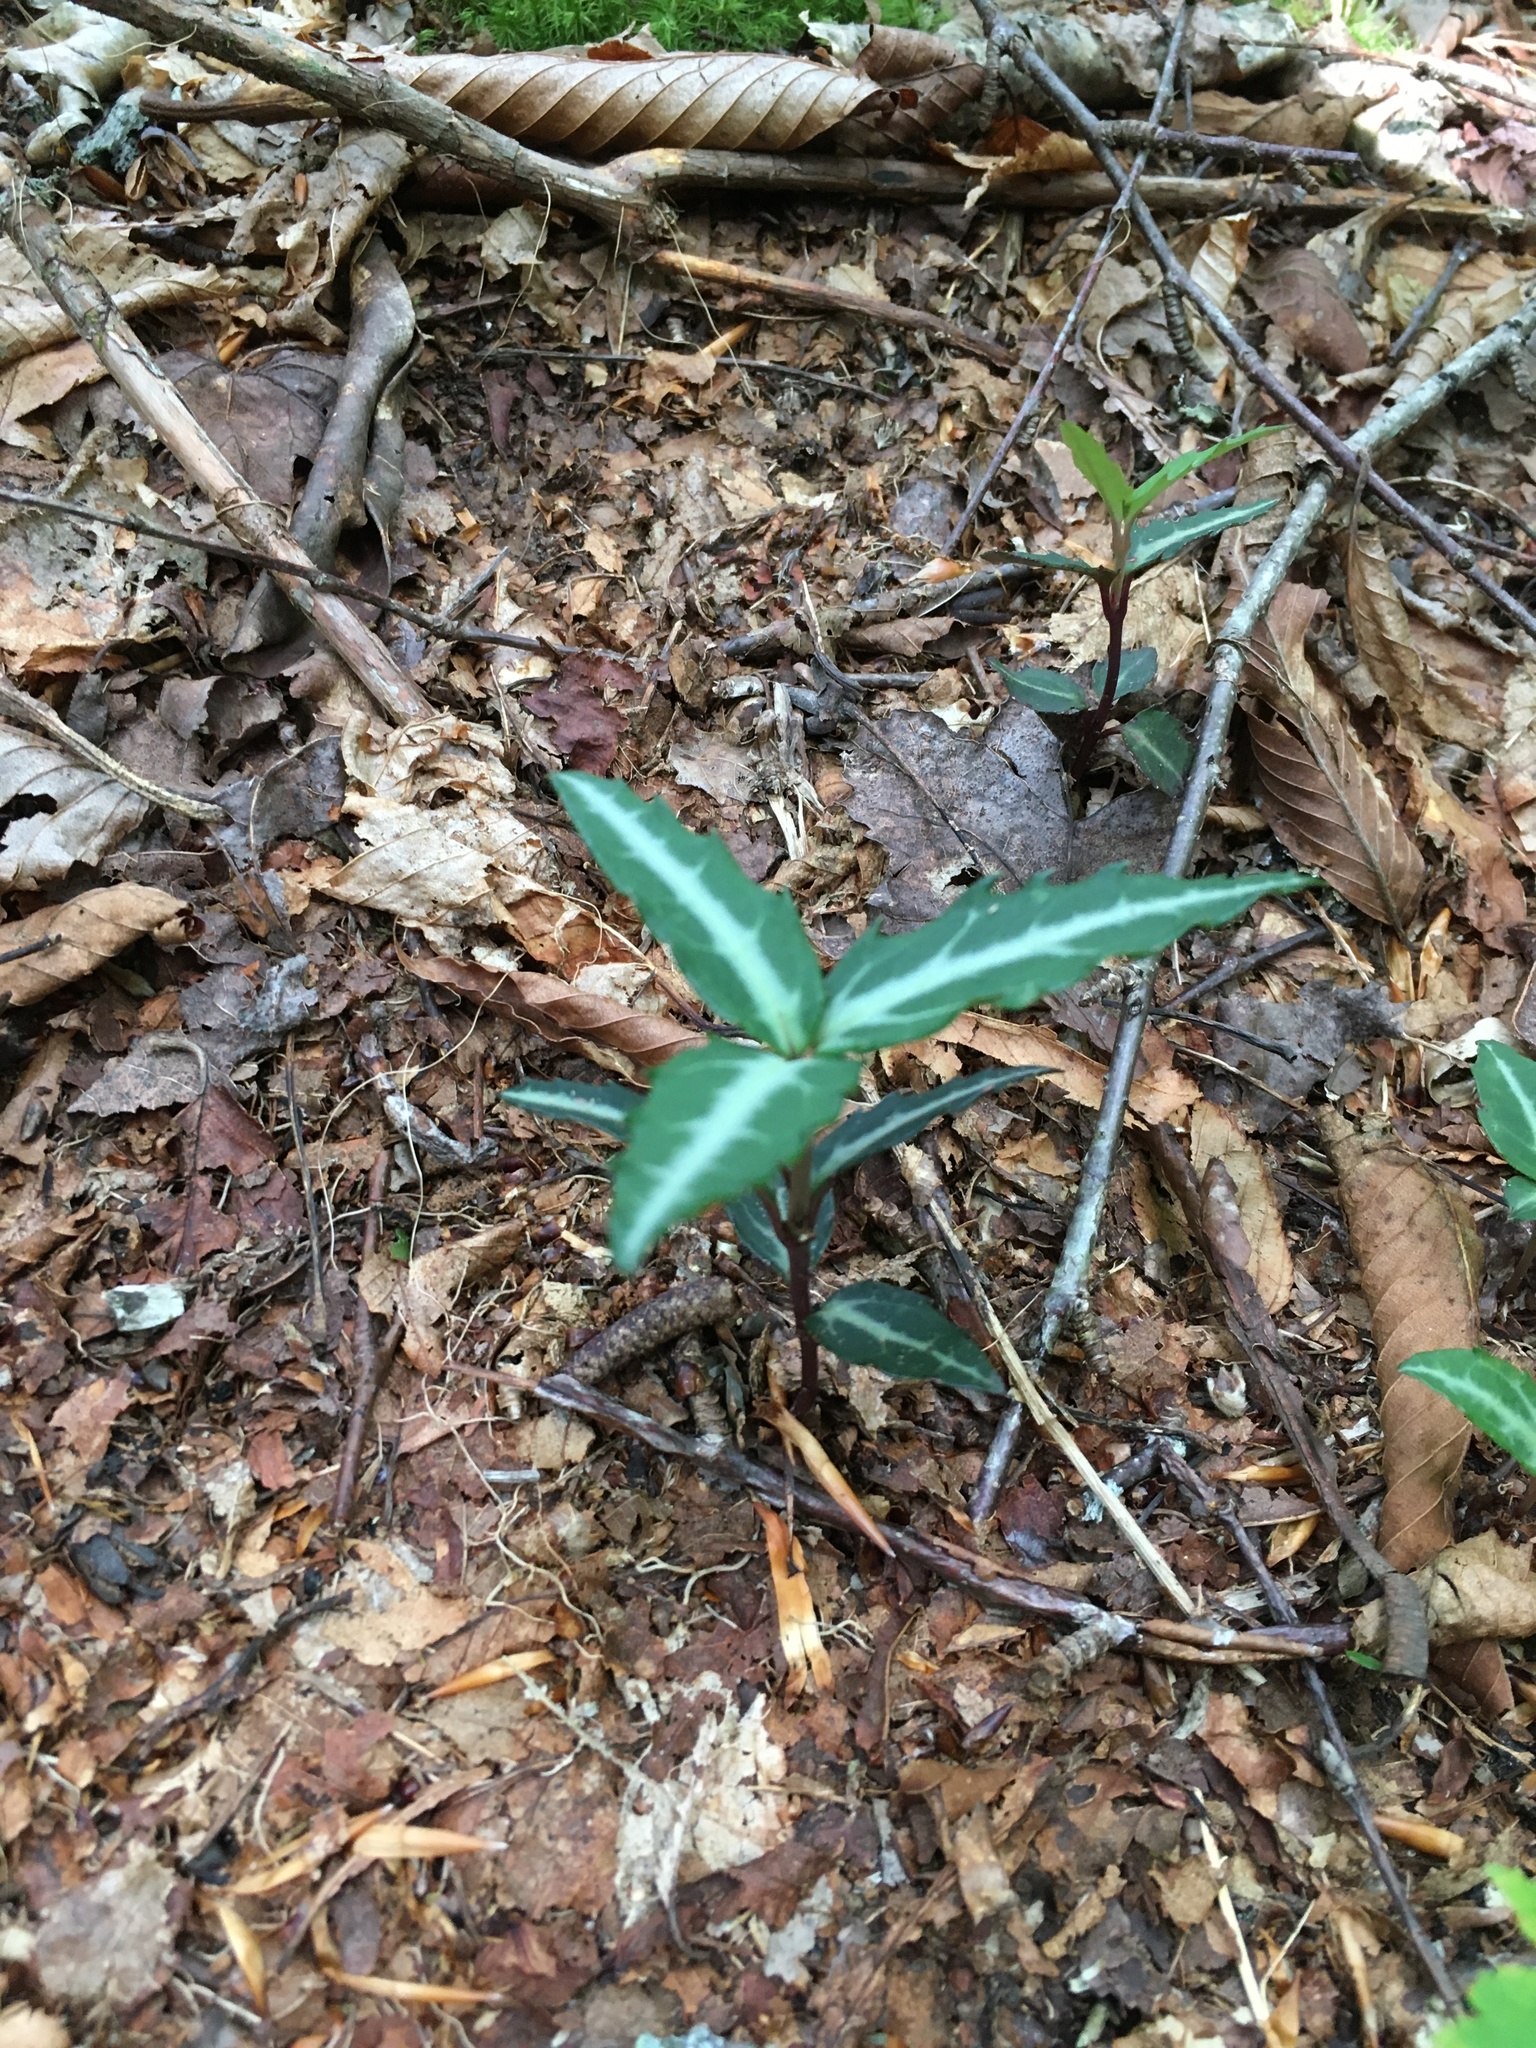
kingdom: Plantae
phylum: Tracheophyta
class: Magnoliopsida
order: Ericales
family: Ericaceae
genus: Chimaphila
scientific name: Chimaphila maculata
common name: Spotted pipsissewa
